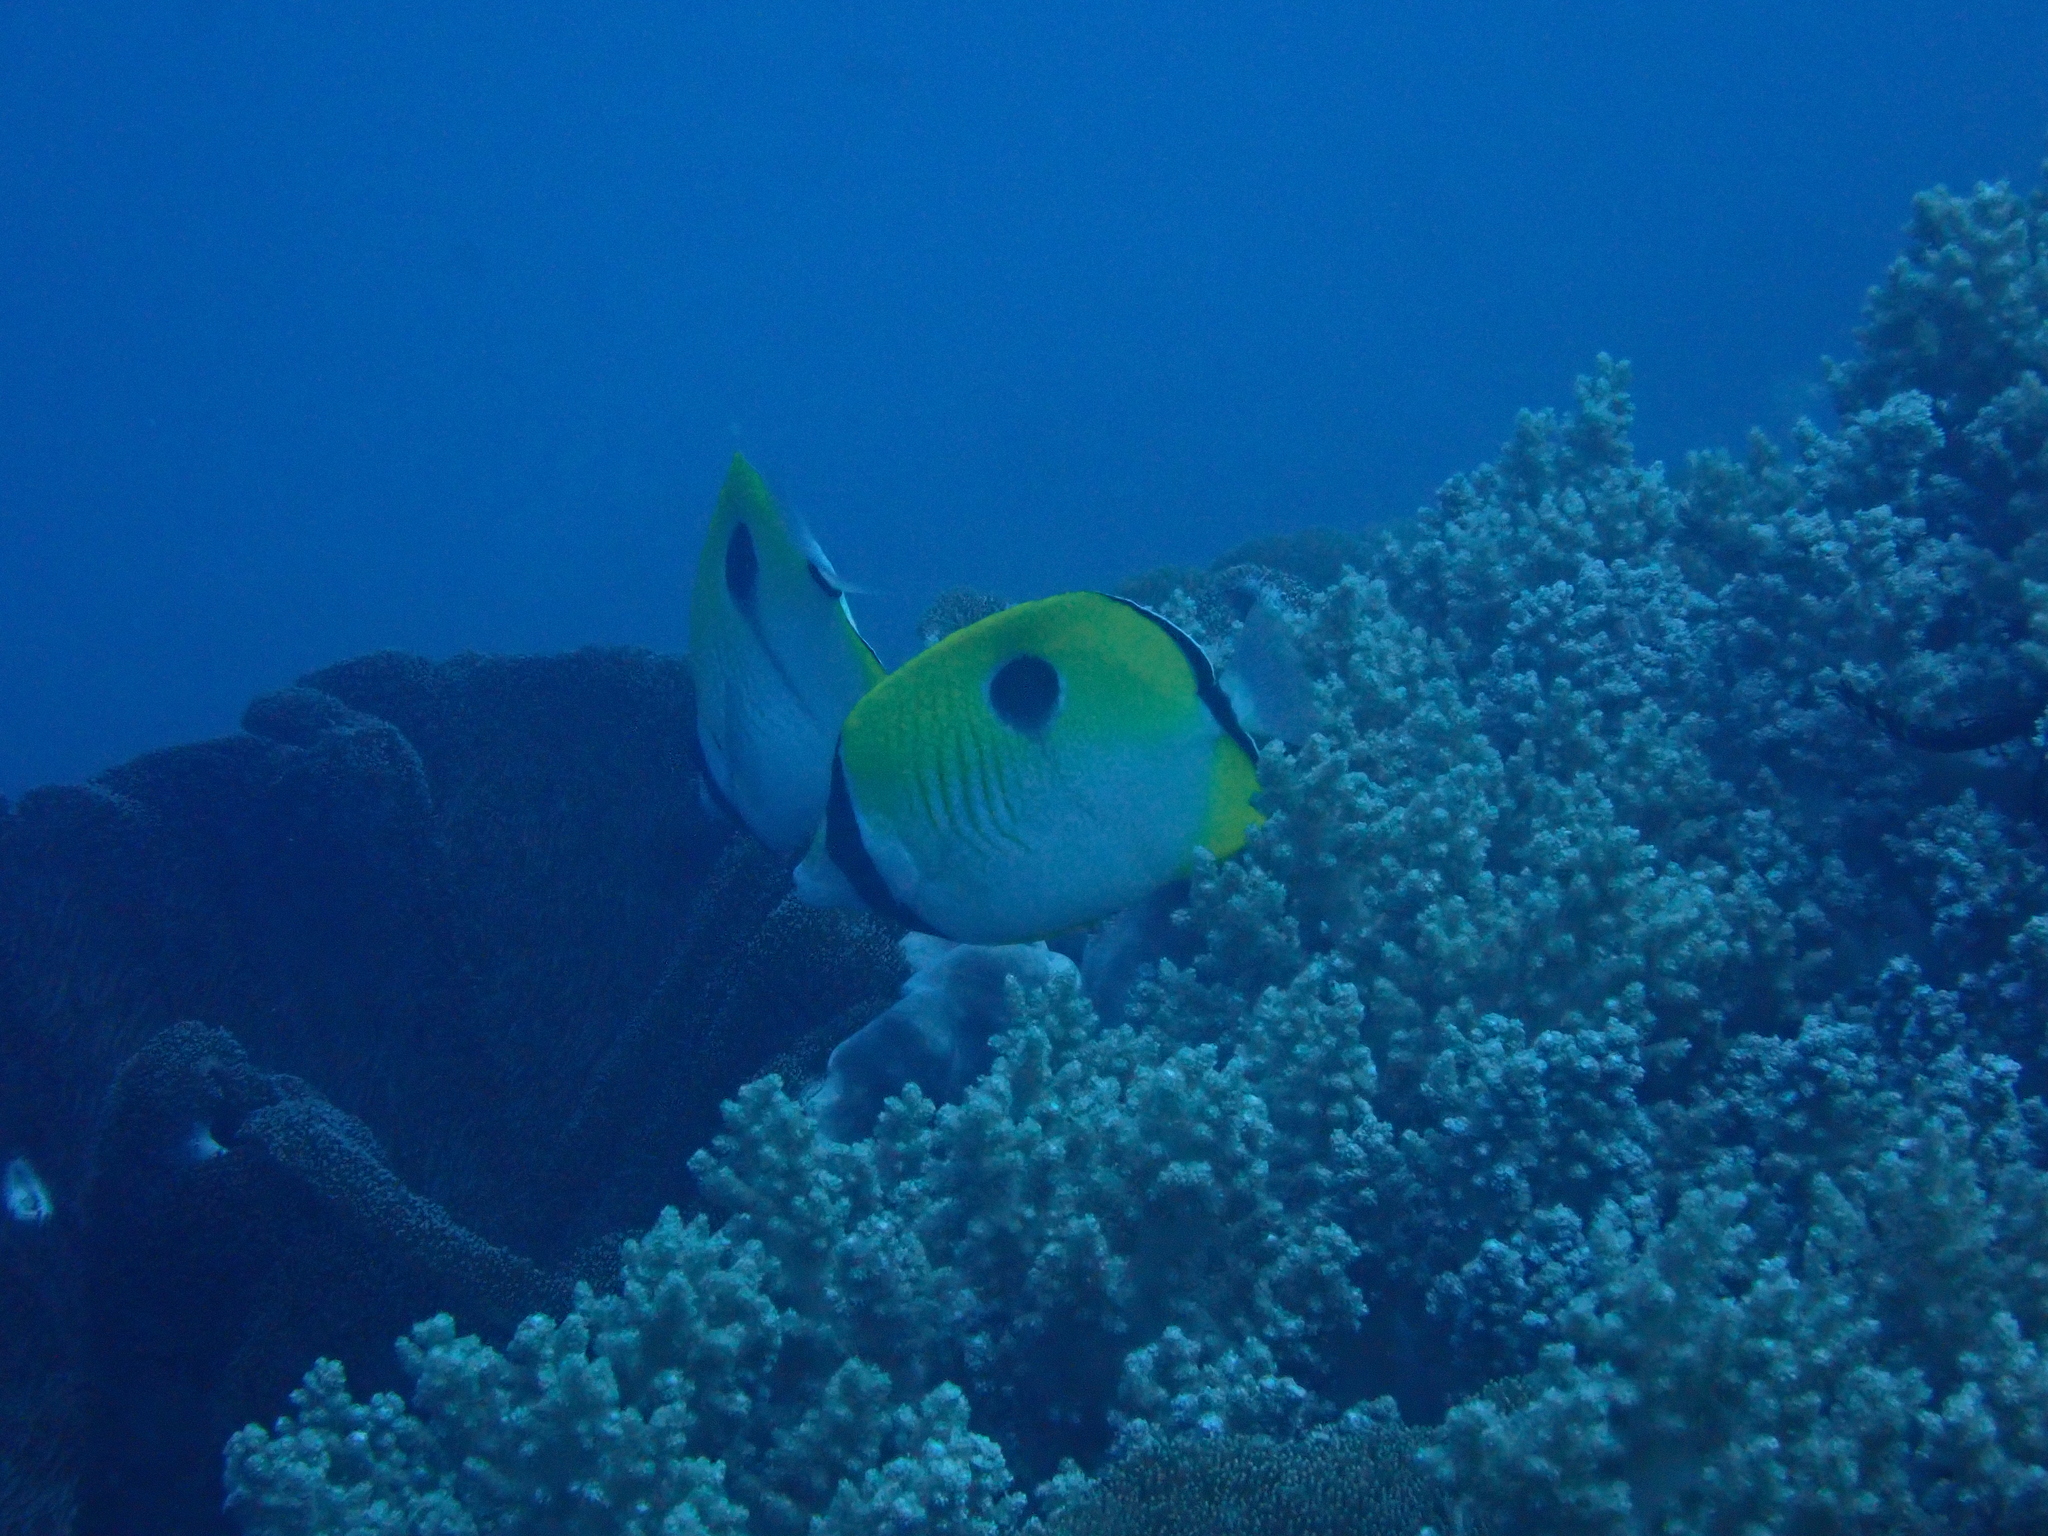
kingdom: Animalia
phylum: Chordata
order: Perciformes
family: Chaetodontidae
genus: Chaetodon
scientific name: Chaetodon unimaculatus
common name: Teardrop butterflyfish
